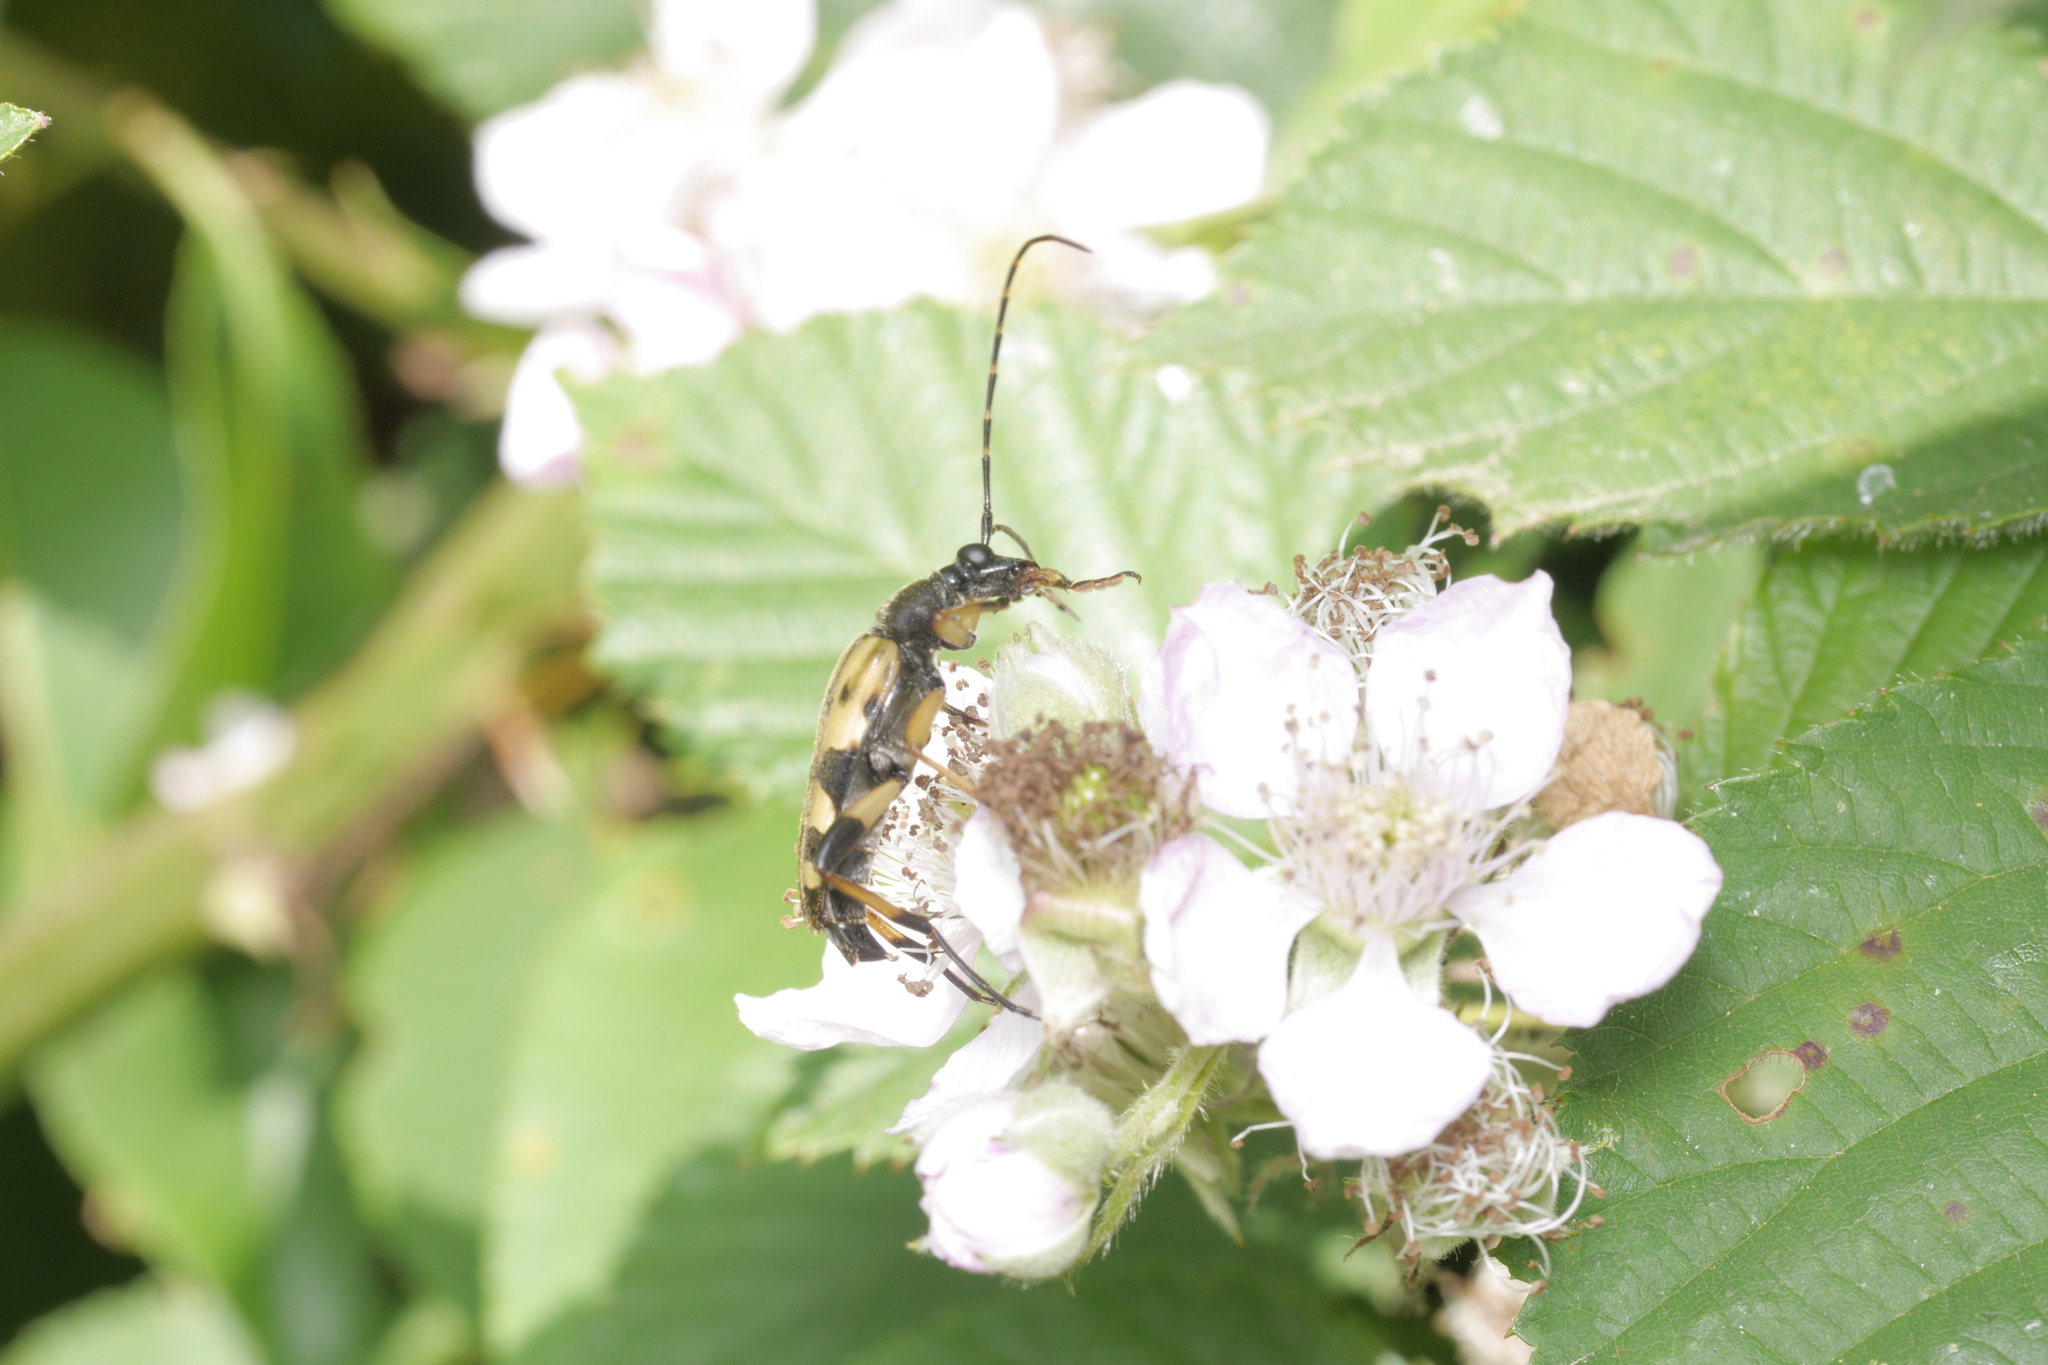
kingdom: Animalia
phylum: Arthropoda
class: Insecta
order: Coleoptera
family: Cerambycidae
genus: Rutpela
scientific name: Rutpela maculata
